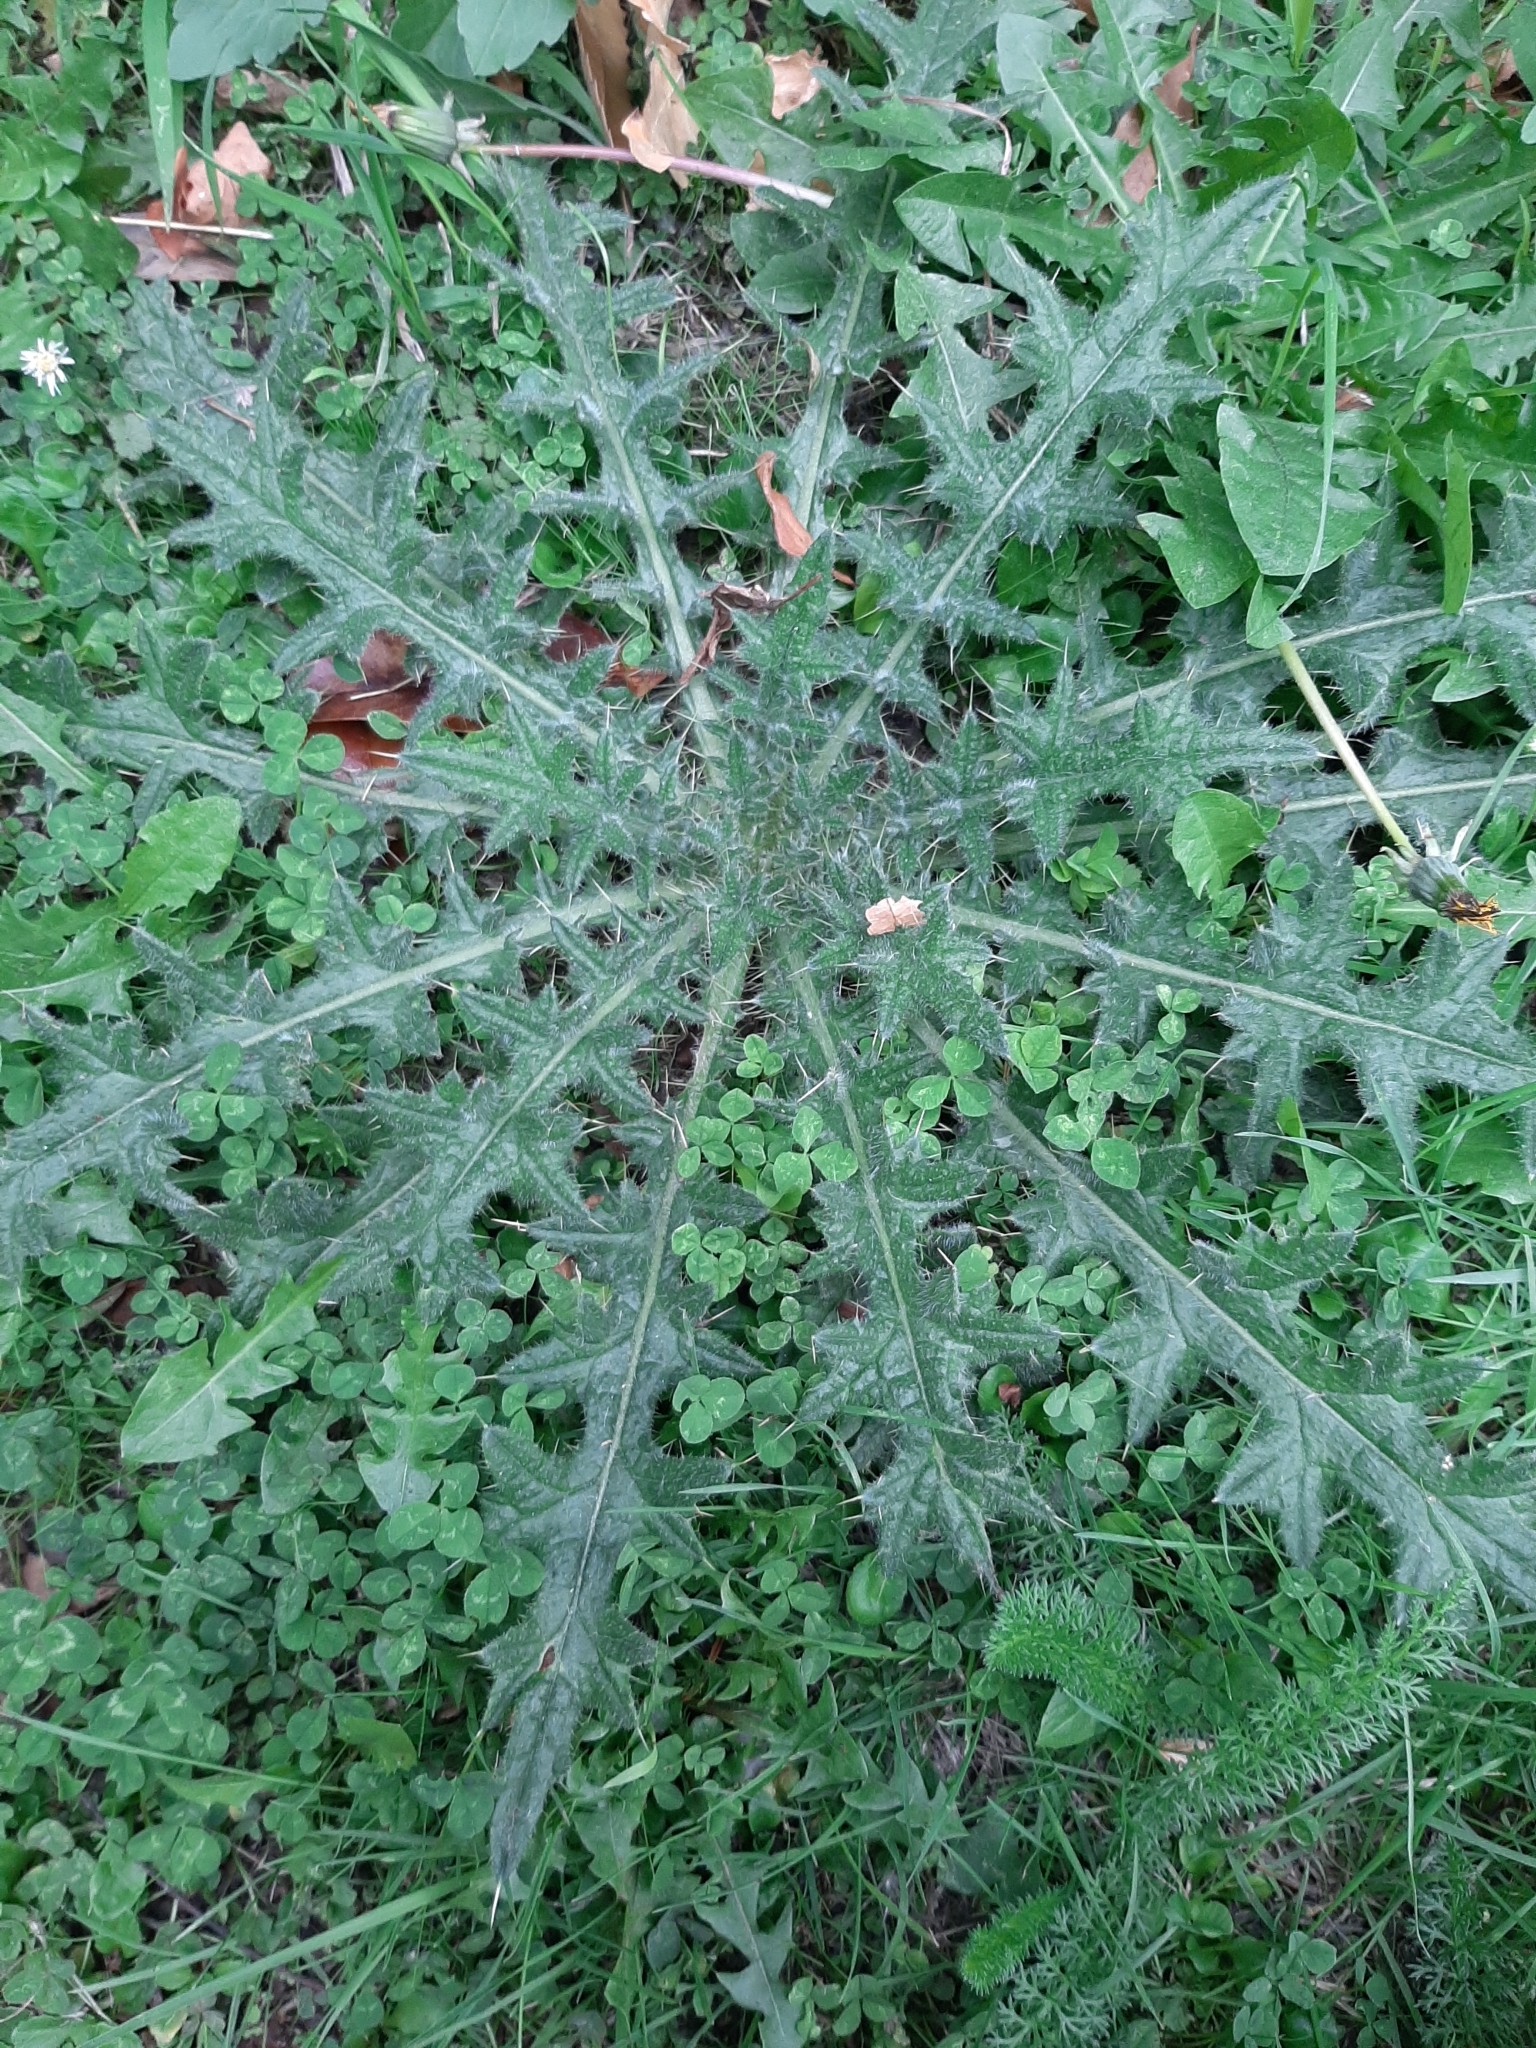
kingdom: Plantae
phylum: Tracheophyta
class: Magnoliopsida
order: Asterales
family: Asteraceae
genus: Cirsium
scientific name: Cirsium vulgare
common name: Bull thistle
